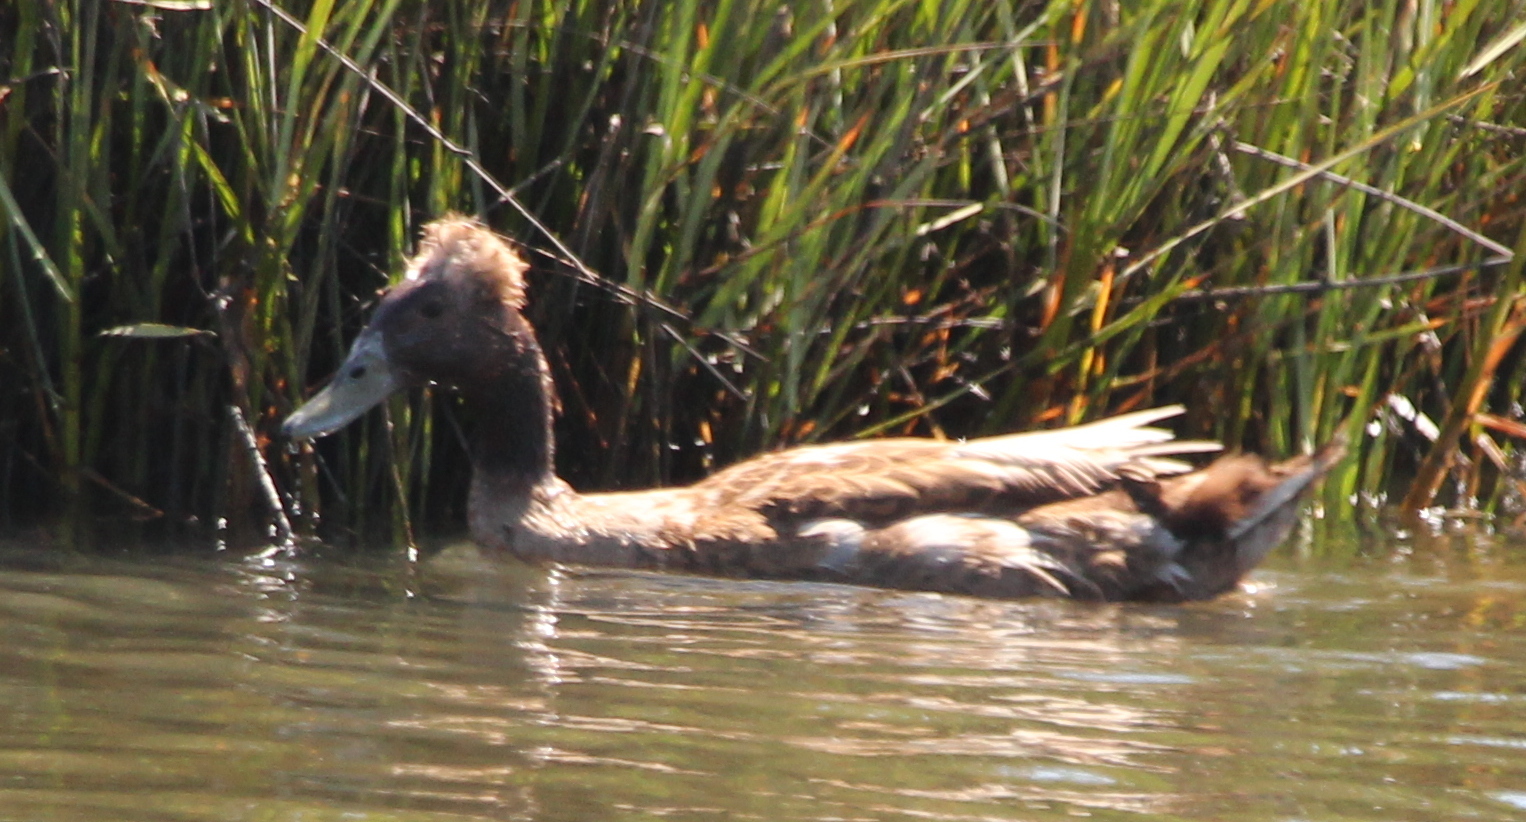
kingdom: Animalia
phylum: Chordata
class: Aves
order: Anseriformes
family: Anatidae
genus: Anas
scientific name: Anas platyrhynchos
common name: Mallard
